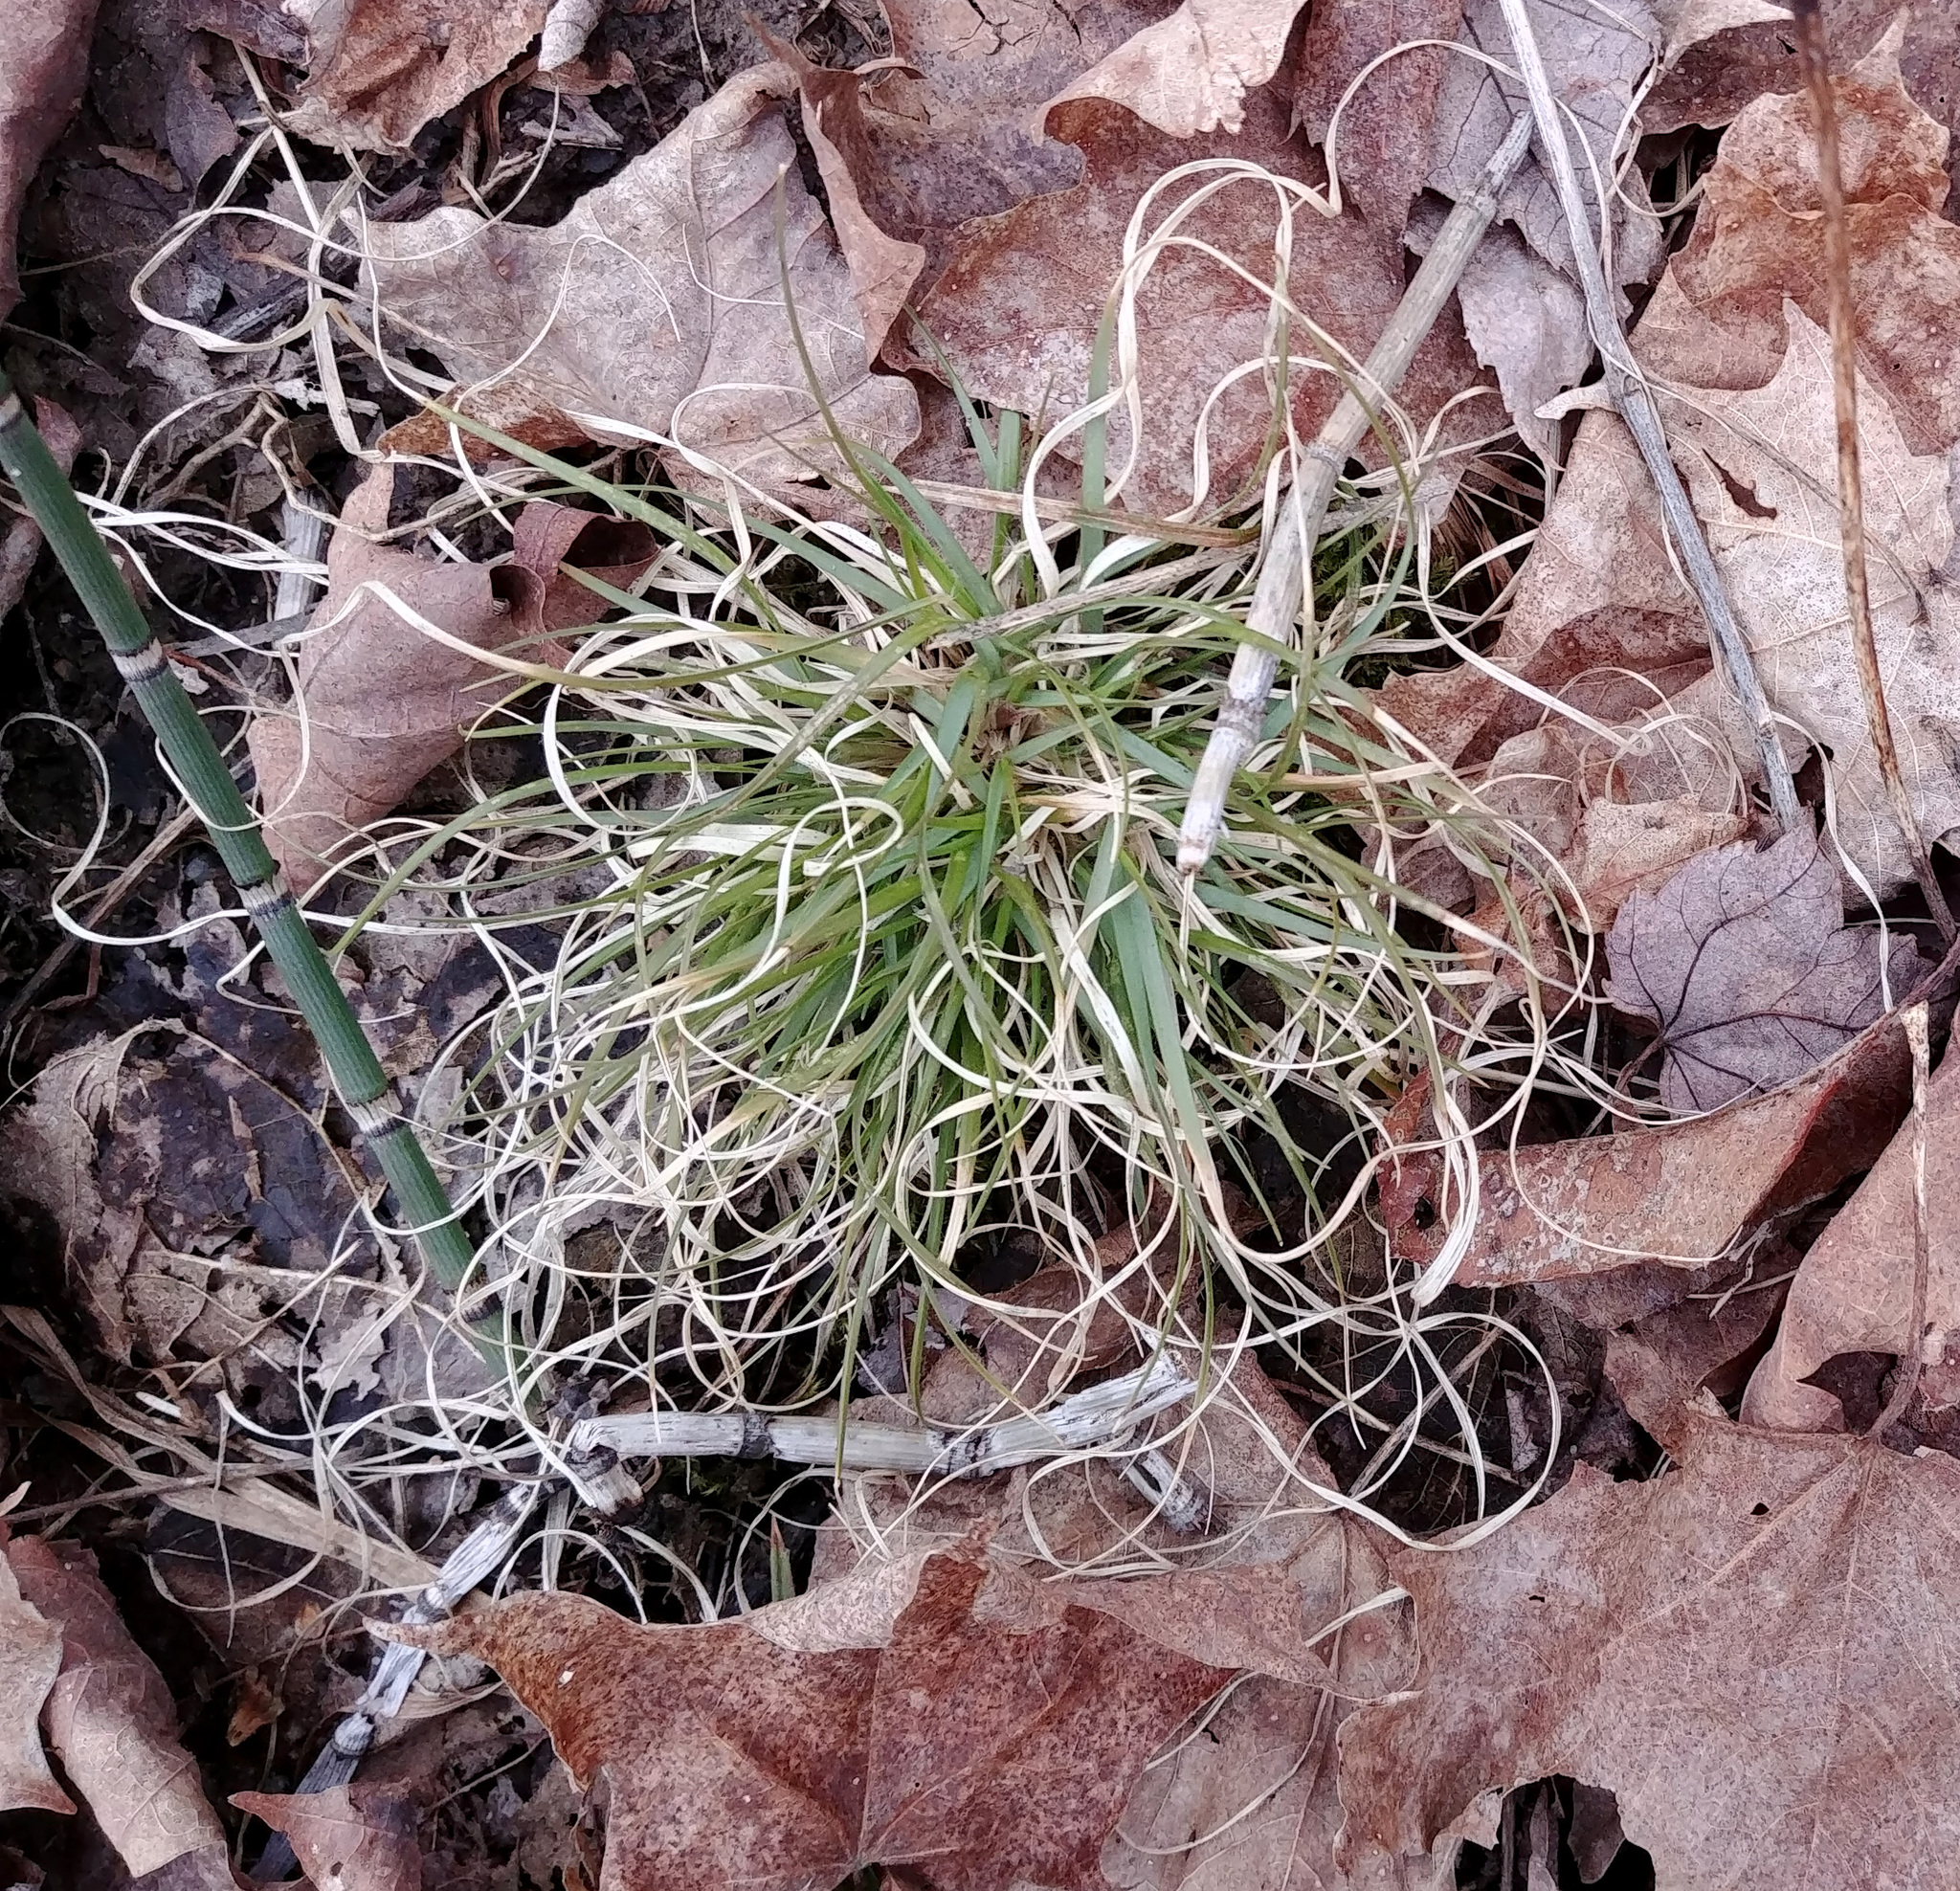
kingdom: Plantae
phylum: Tracheophyta
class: Liliopsida
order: Poales
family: Poaceae
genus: Danthonia
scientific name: Danthonia spicata
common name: Common wild oatgrass
